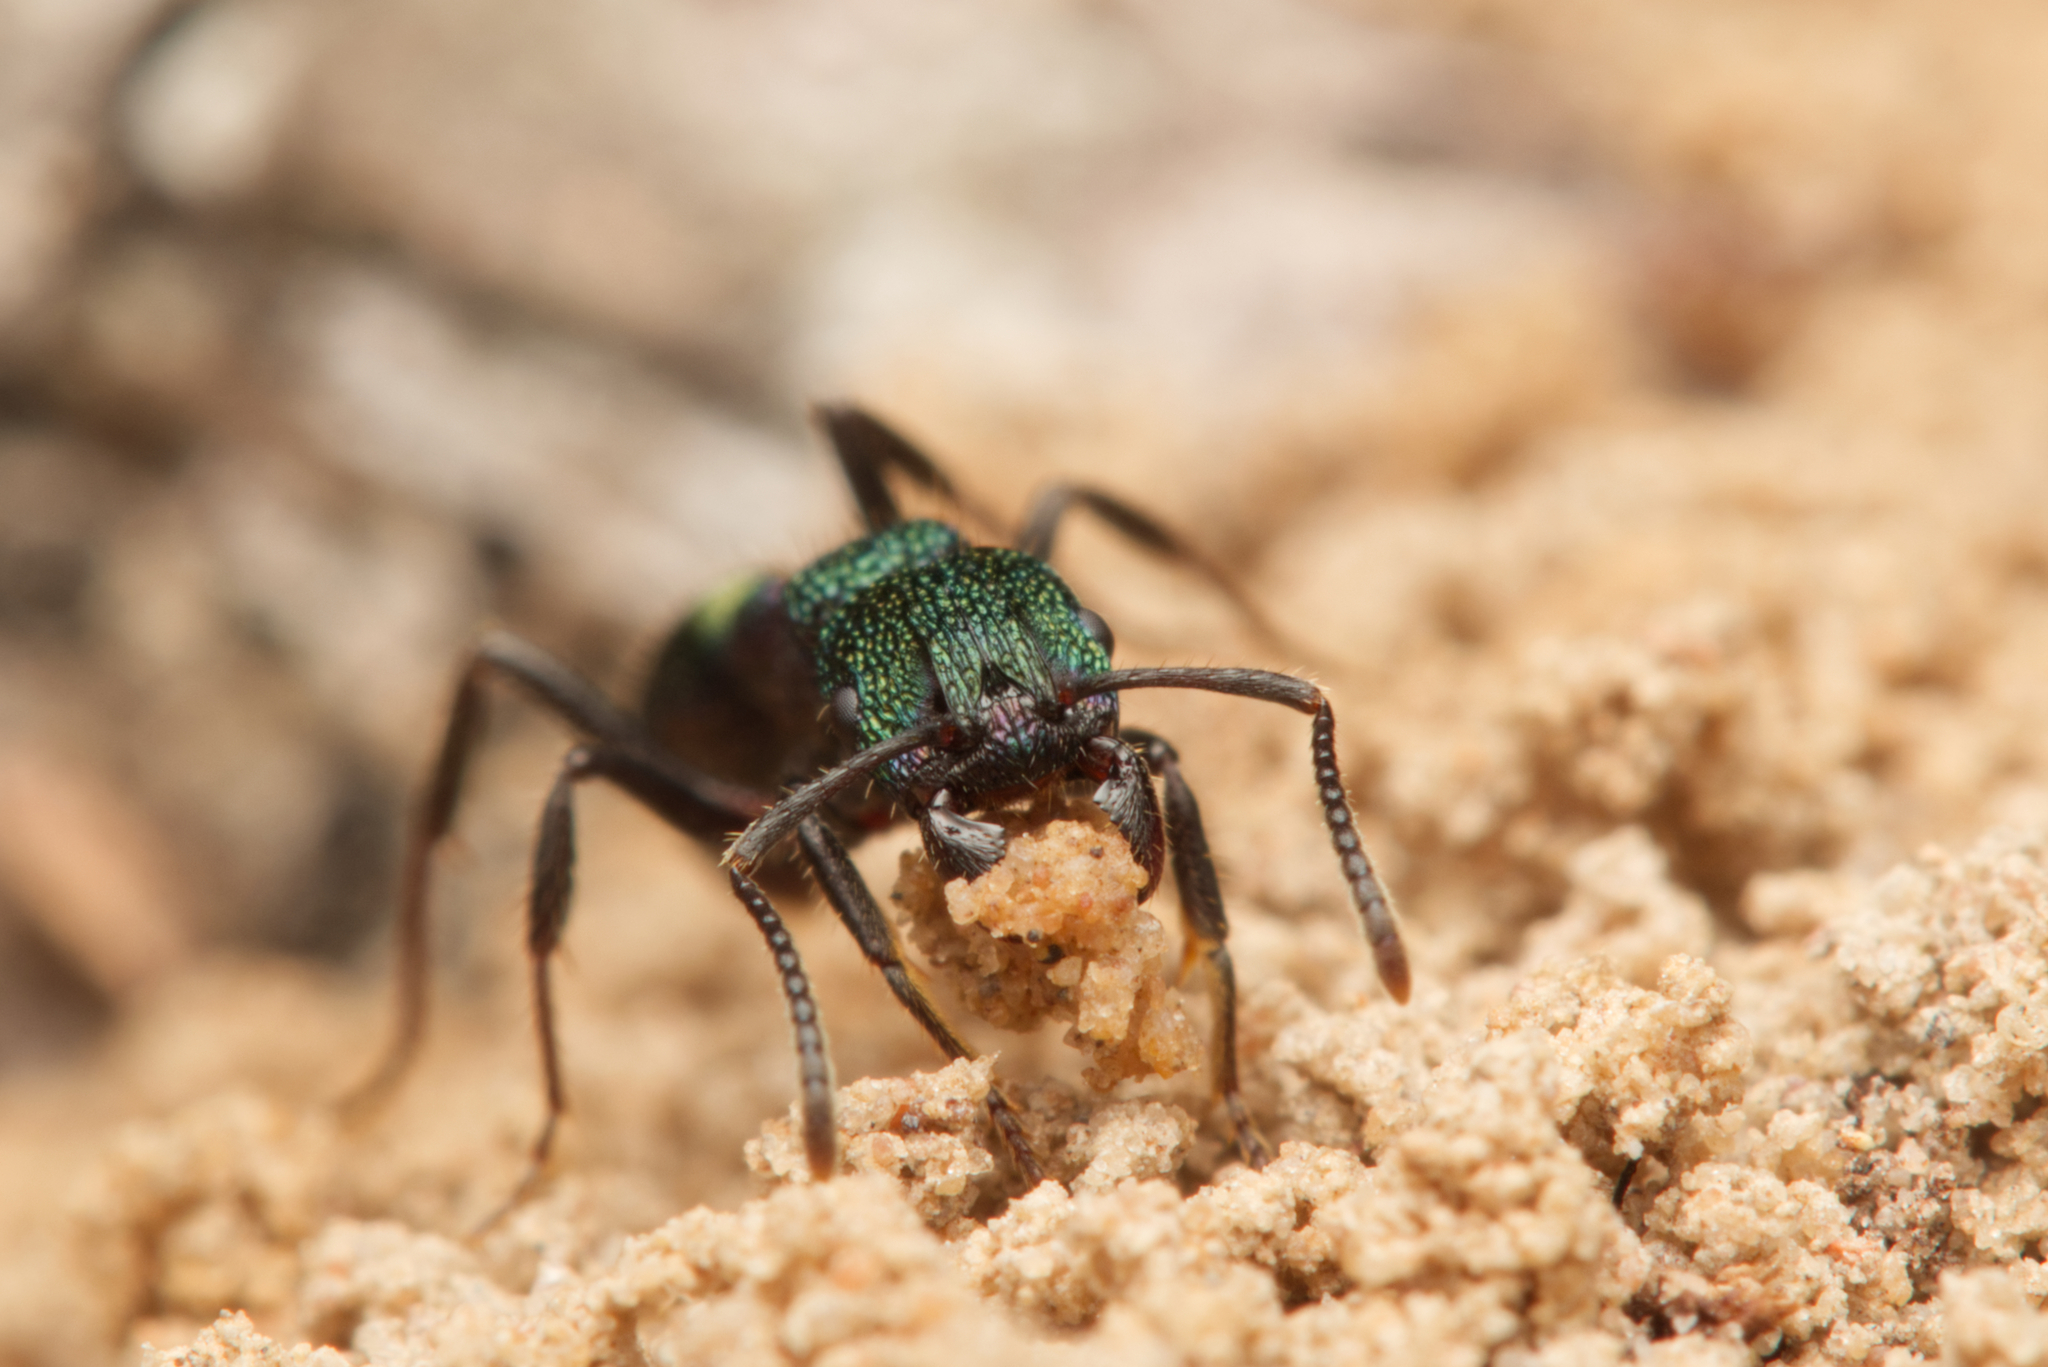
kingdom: Animalia
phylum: Arthropoda
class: Insecta
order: Hymenoptera
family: Formicidae
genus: Rhytidoponera
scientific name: Rhytidoponera metallica
